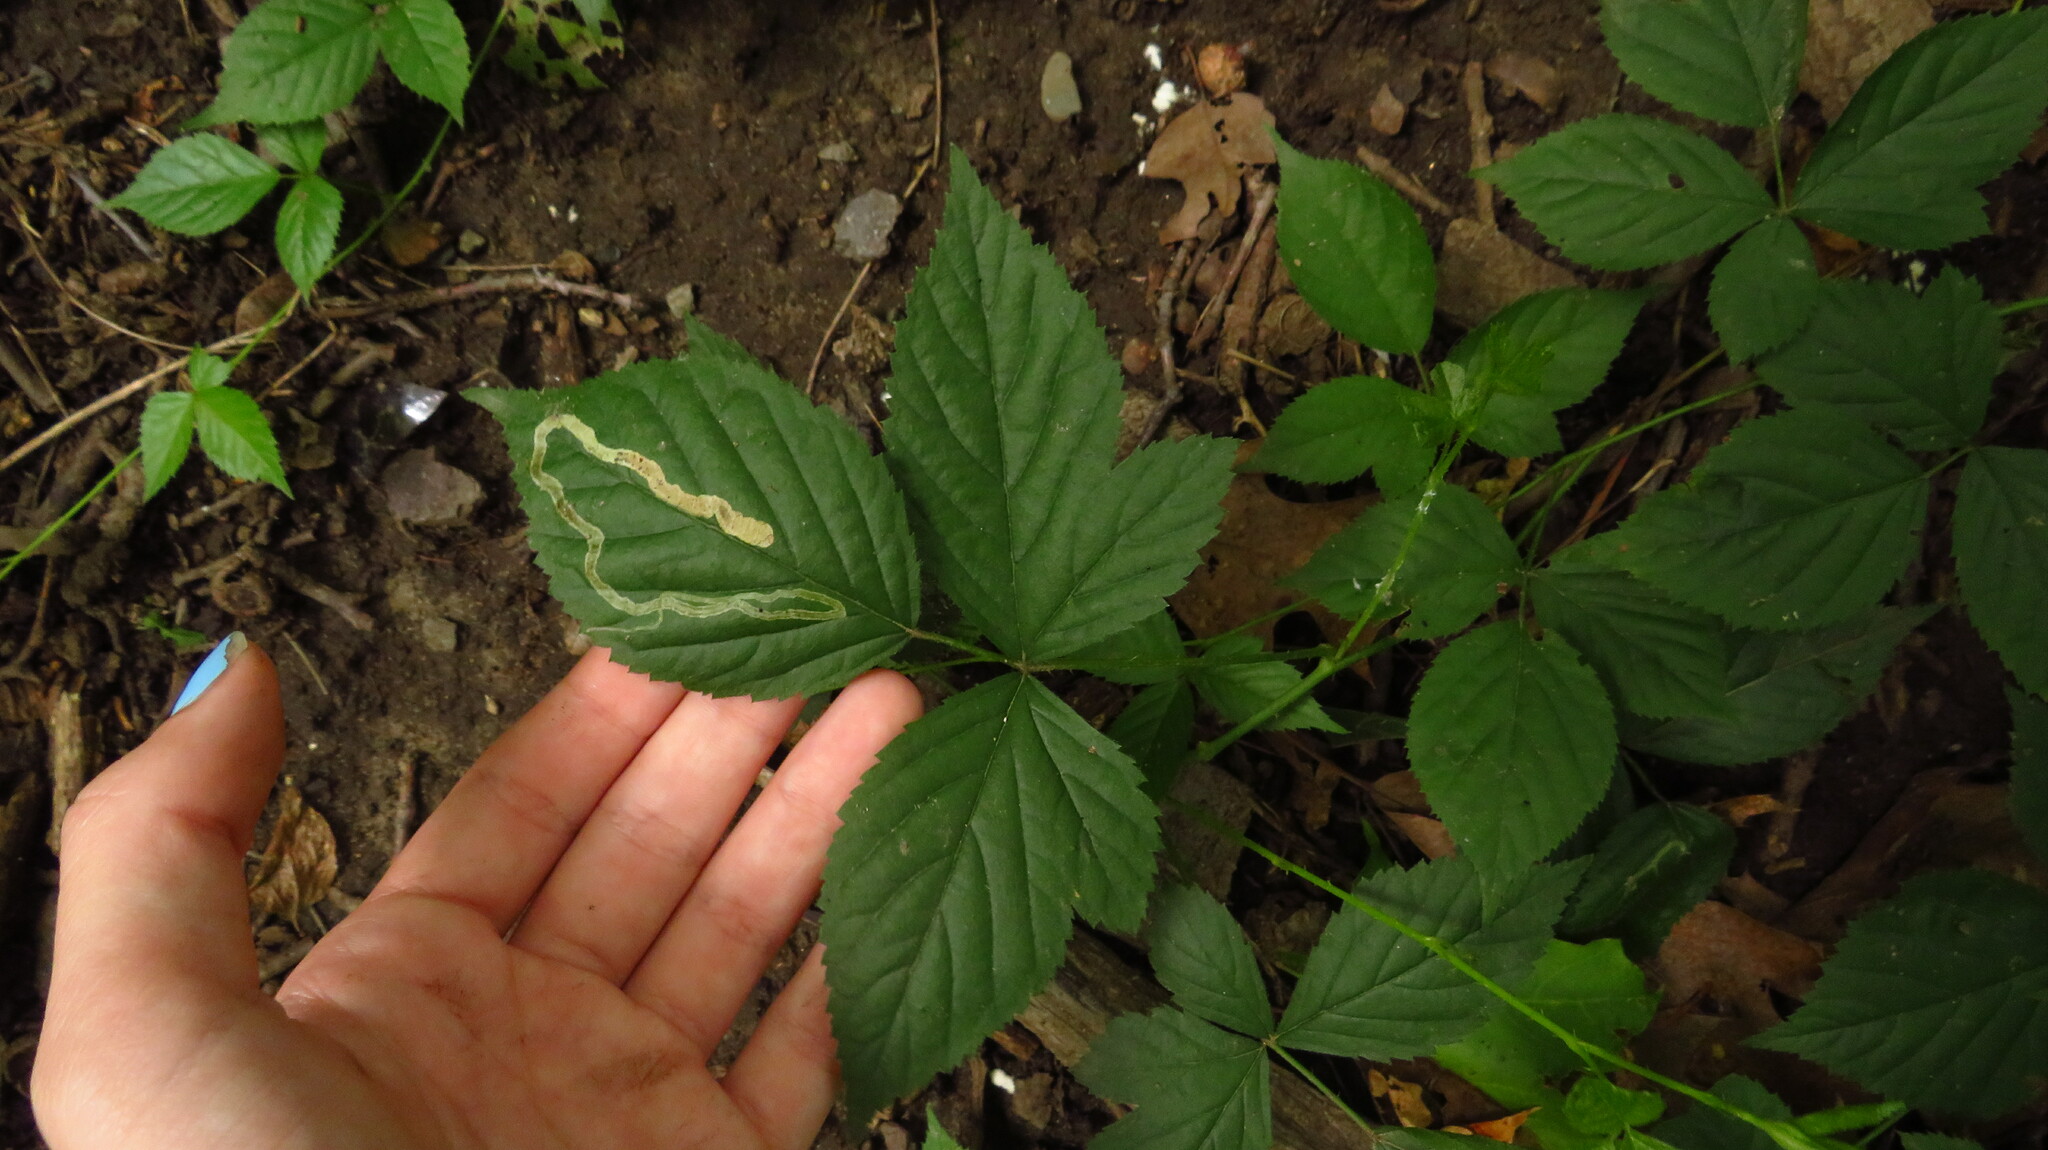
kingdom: Animalia
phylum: Arthropoda
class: Insecta
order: Diptera
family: Agromyzidae
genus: Agromyza
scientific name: Agromyza vockerothi
